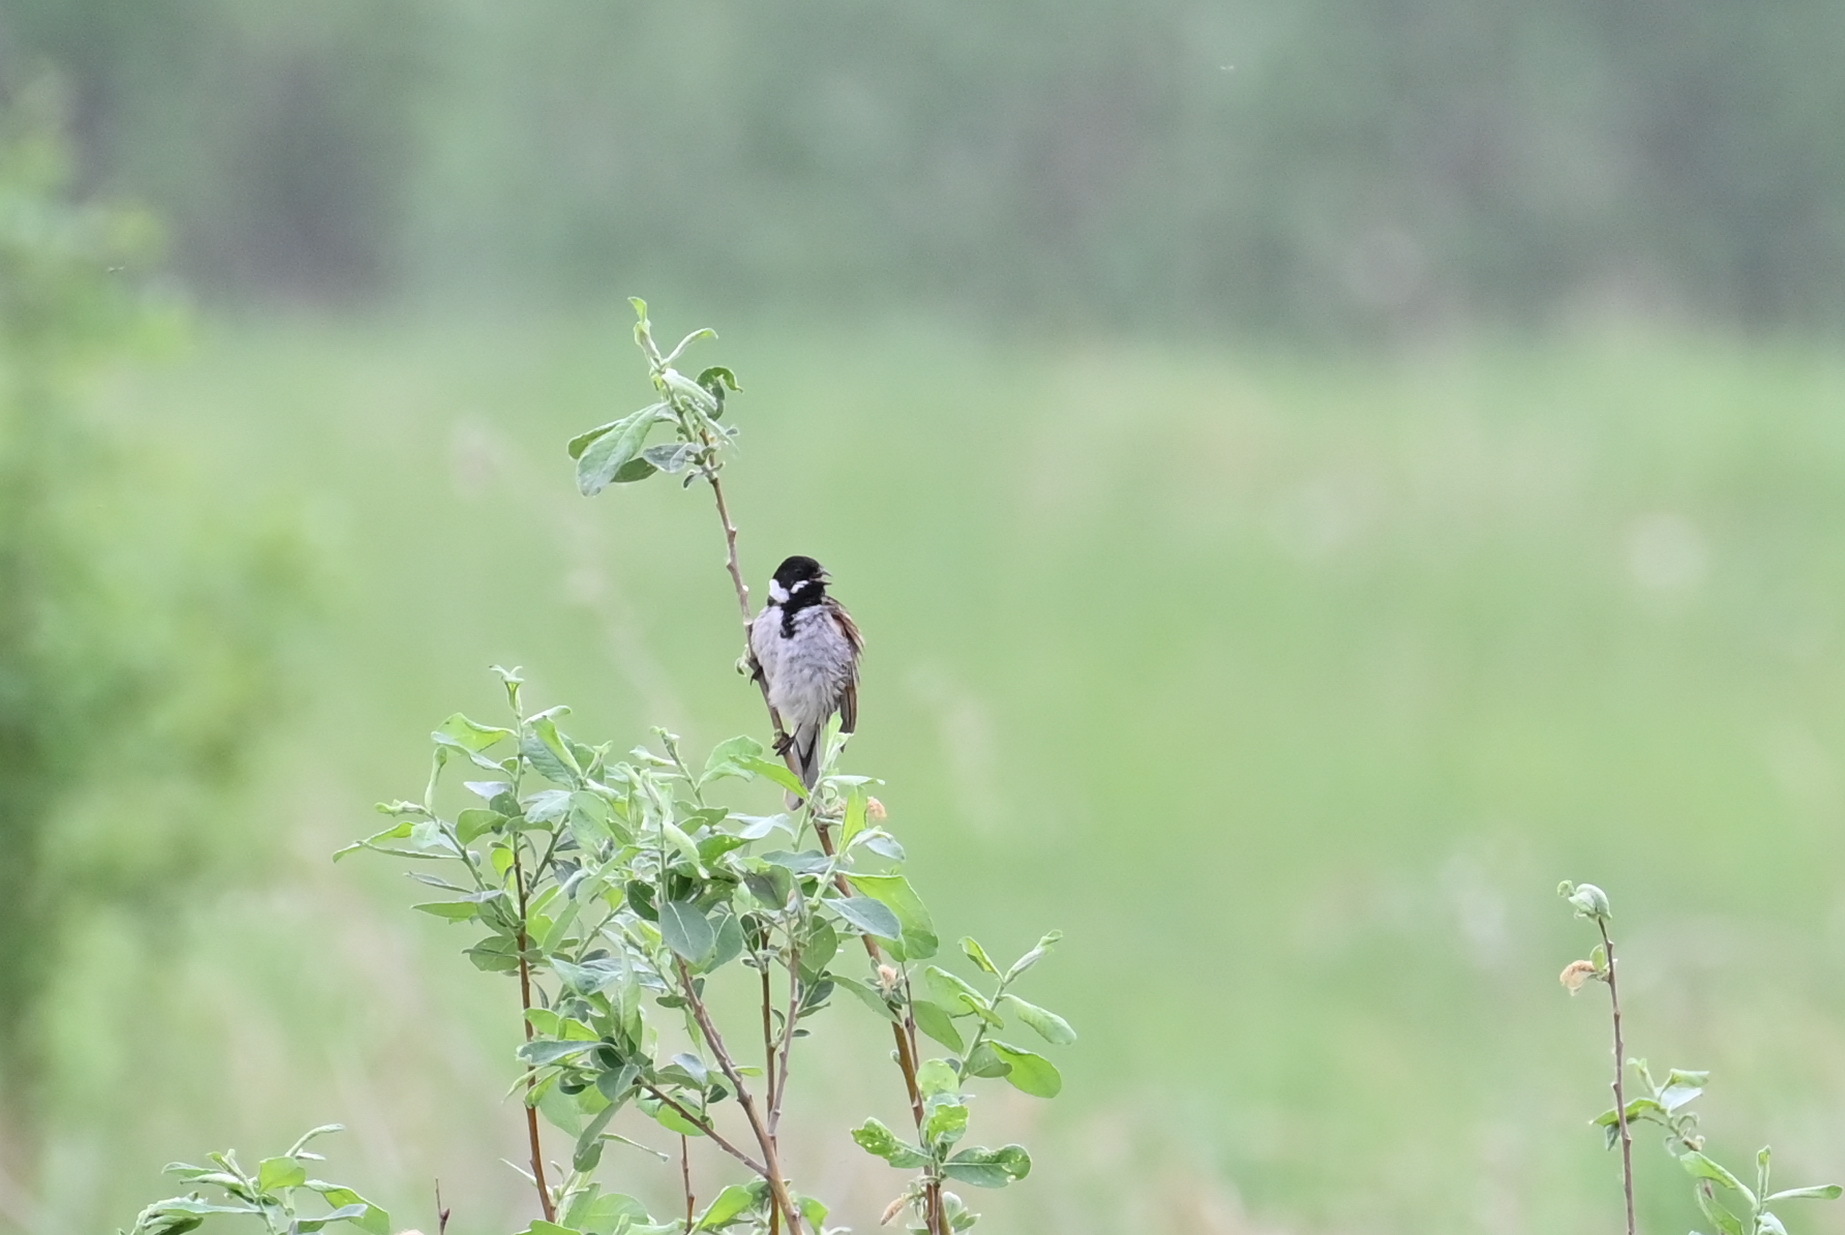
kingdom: Animalia
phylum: Chordata
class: Aves
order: Passeriformes
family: Emberizidae
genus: Emberiza
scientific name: Emberiza schoeniclus
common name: Reed bunting
